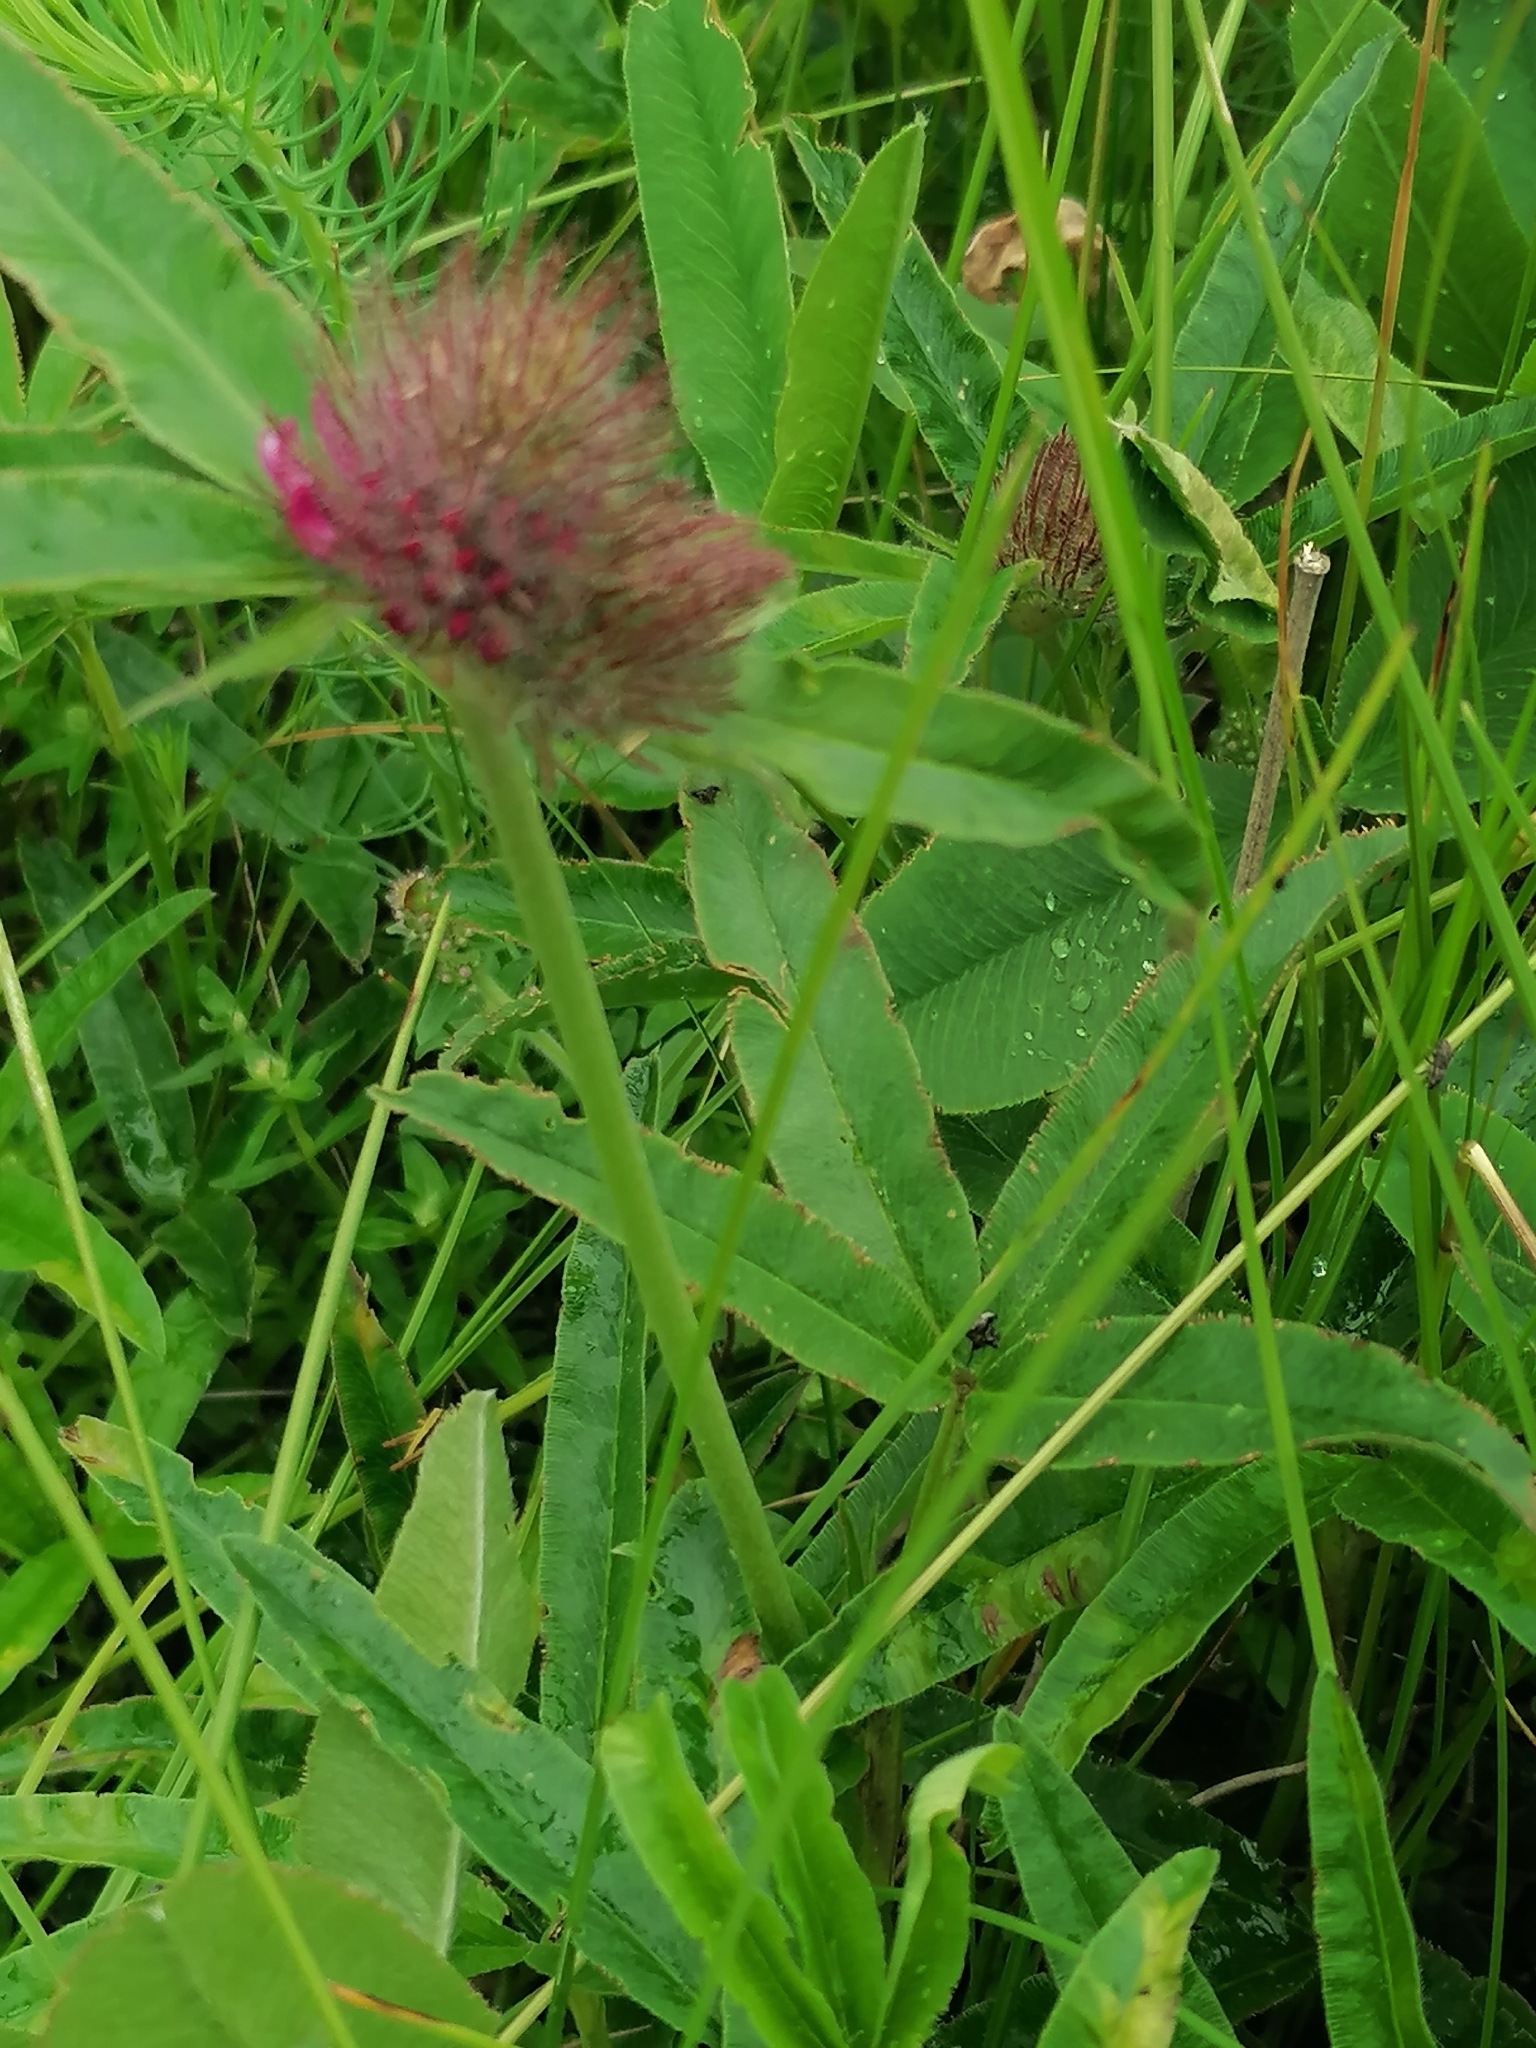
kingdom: Plantae
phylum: Tracheophyta
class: Magnoliopsida
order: Fabales
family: Fabaceae
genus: Trifolium
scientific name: Trifolium alpestre
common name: Owl-head clover
